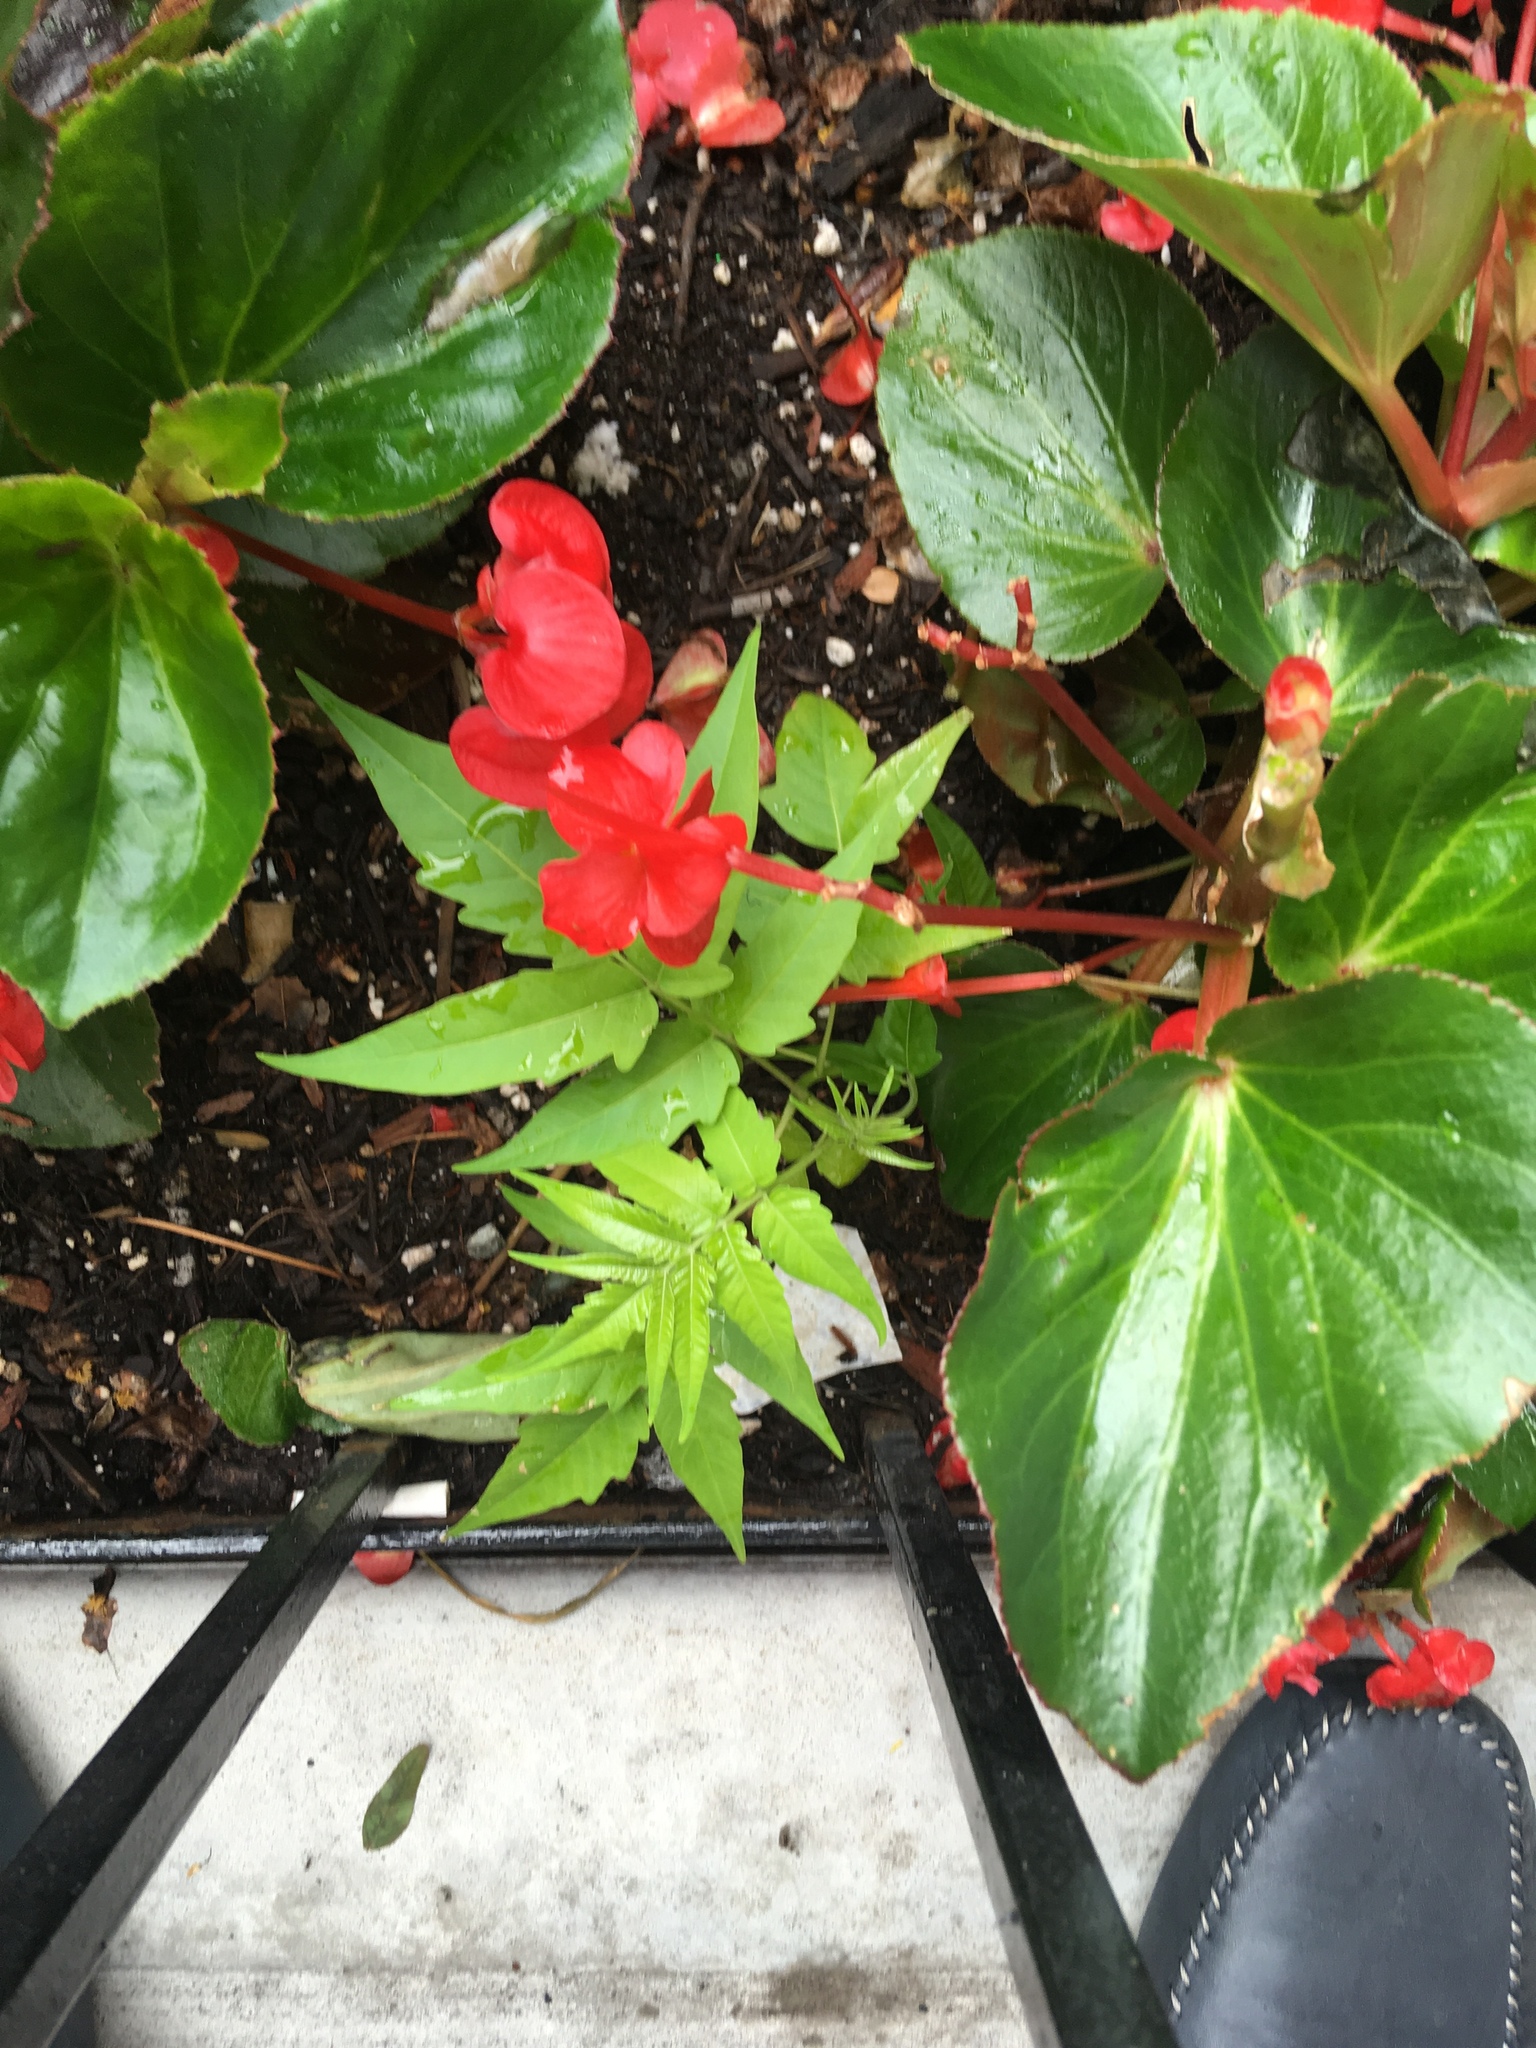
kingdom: Plantae
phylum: Tracheophyta
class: Magnoliopsida
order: Sapindales
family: Simaroubaceae
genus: Ailanthus
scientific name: Ailanthus altissima
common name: Tree-of-heaven
